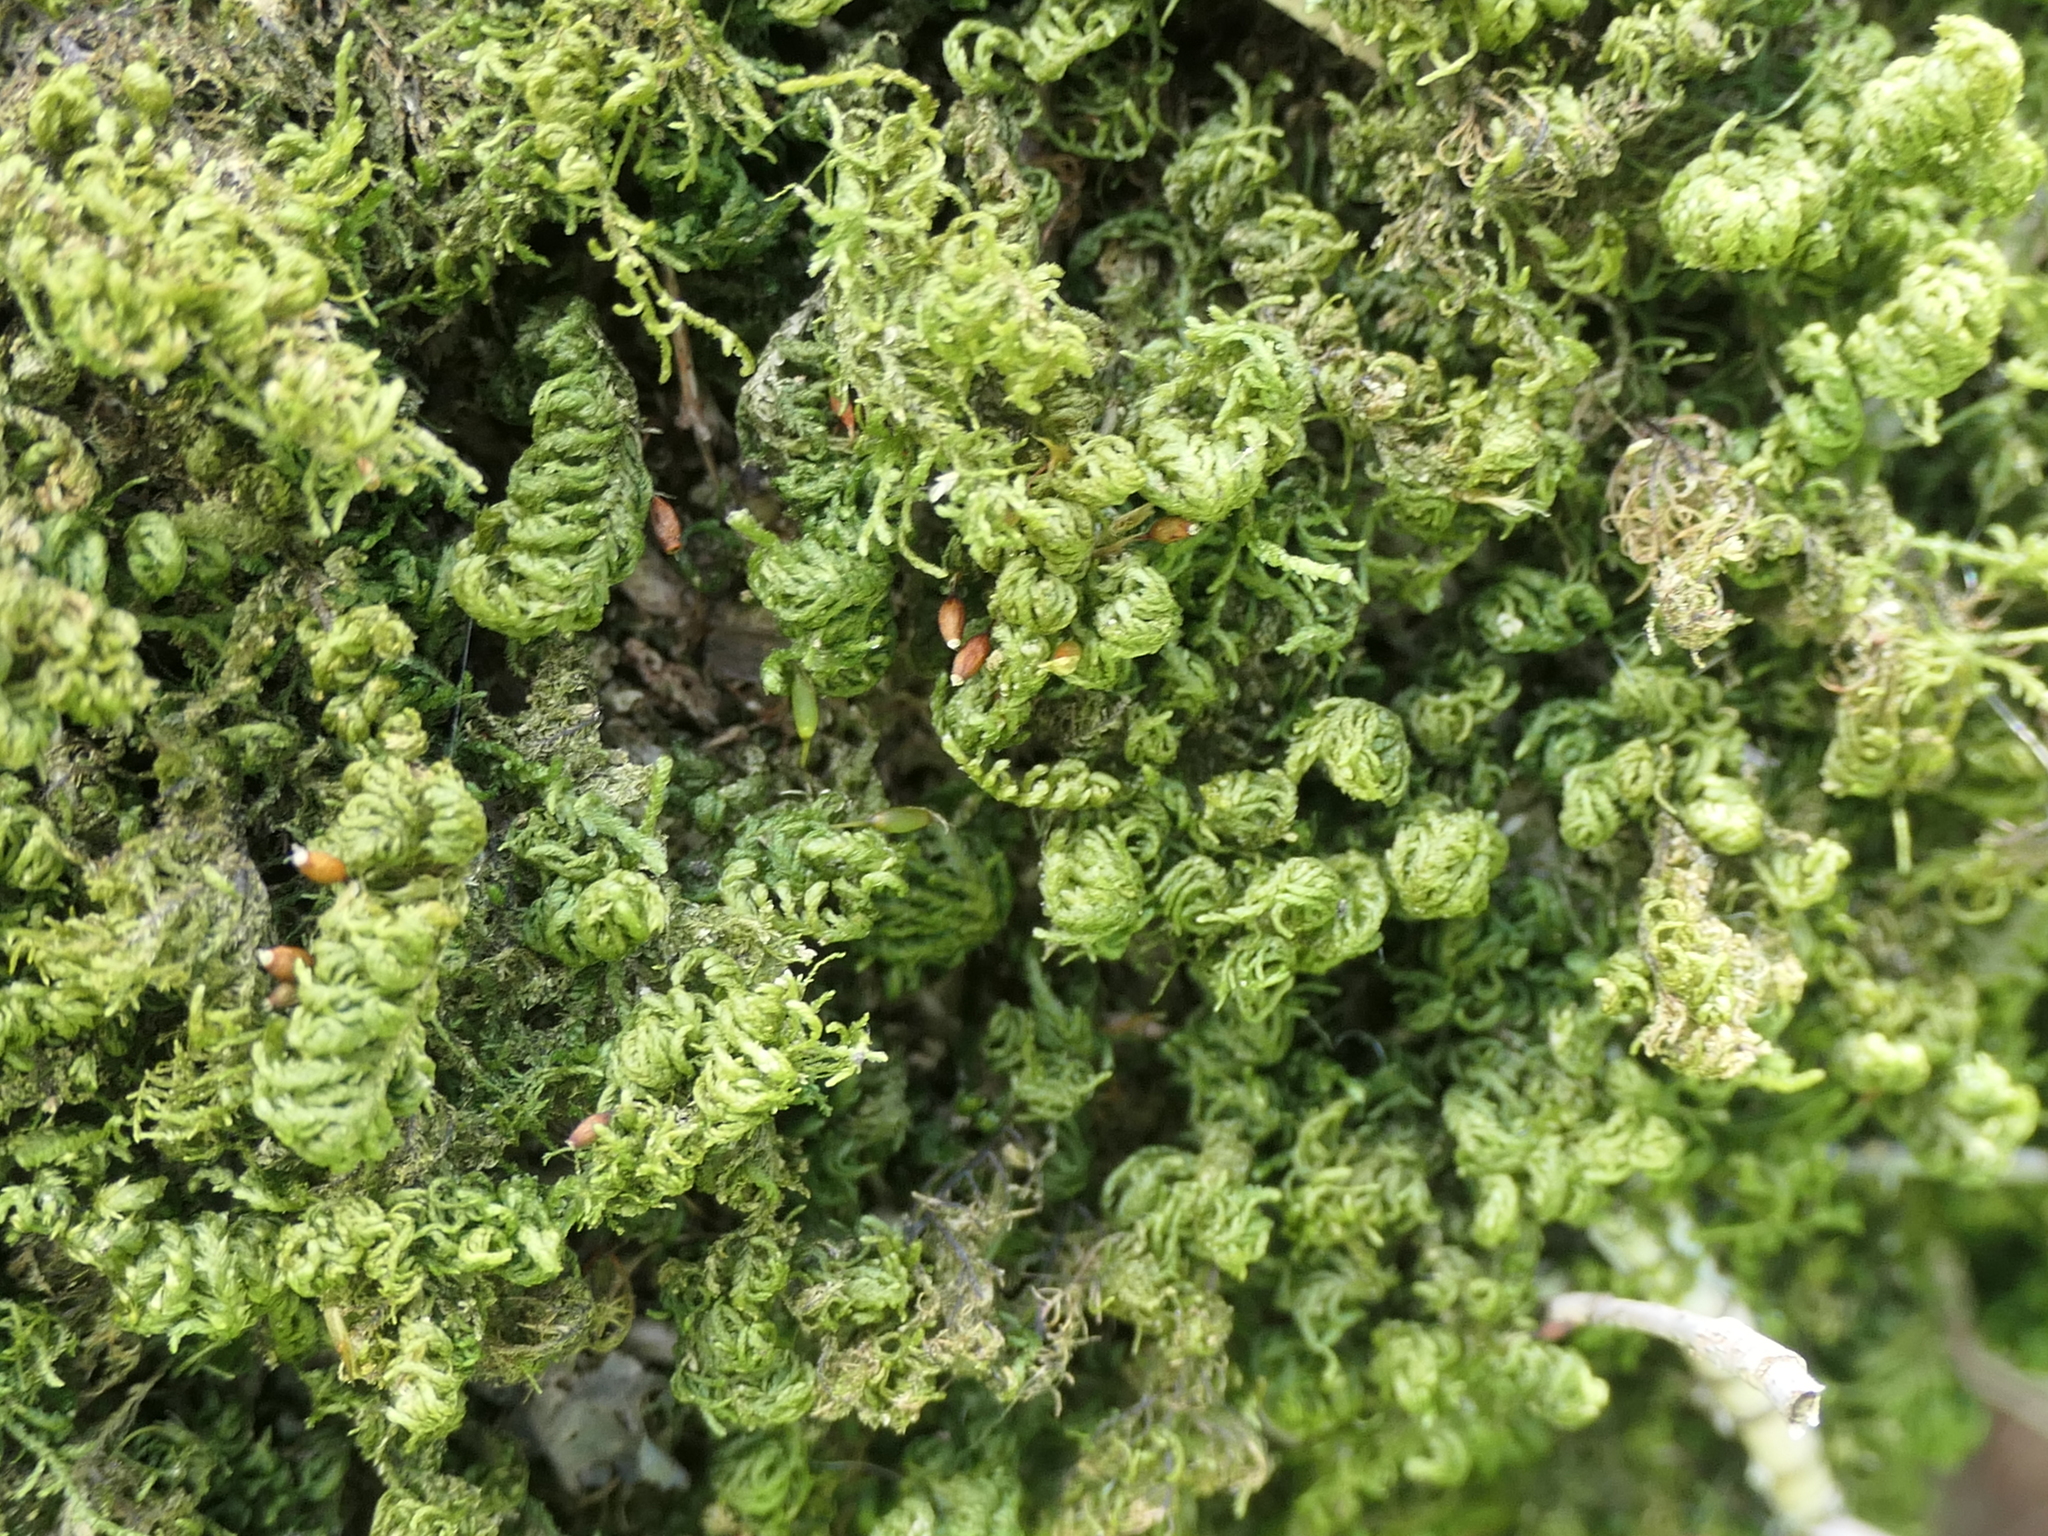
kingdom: Plantae
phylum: Bryophyta
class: Bryopsida
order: Hypnales
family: Neckeraceae
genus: Leptodon
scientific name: Leptodon smithii
